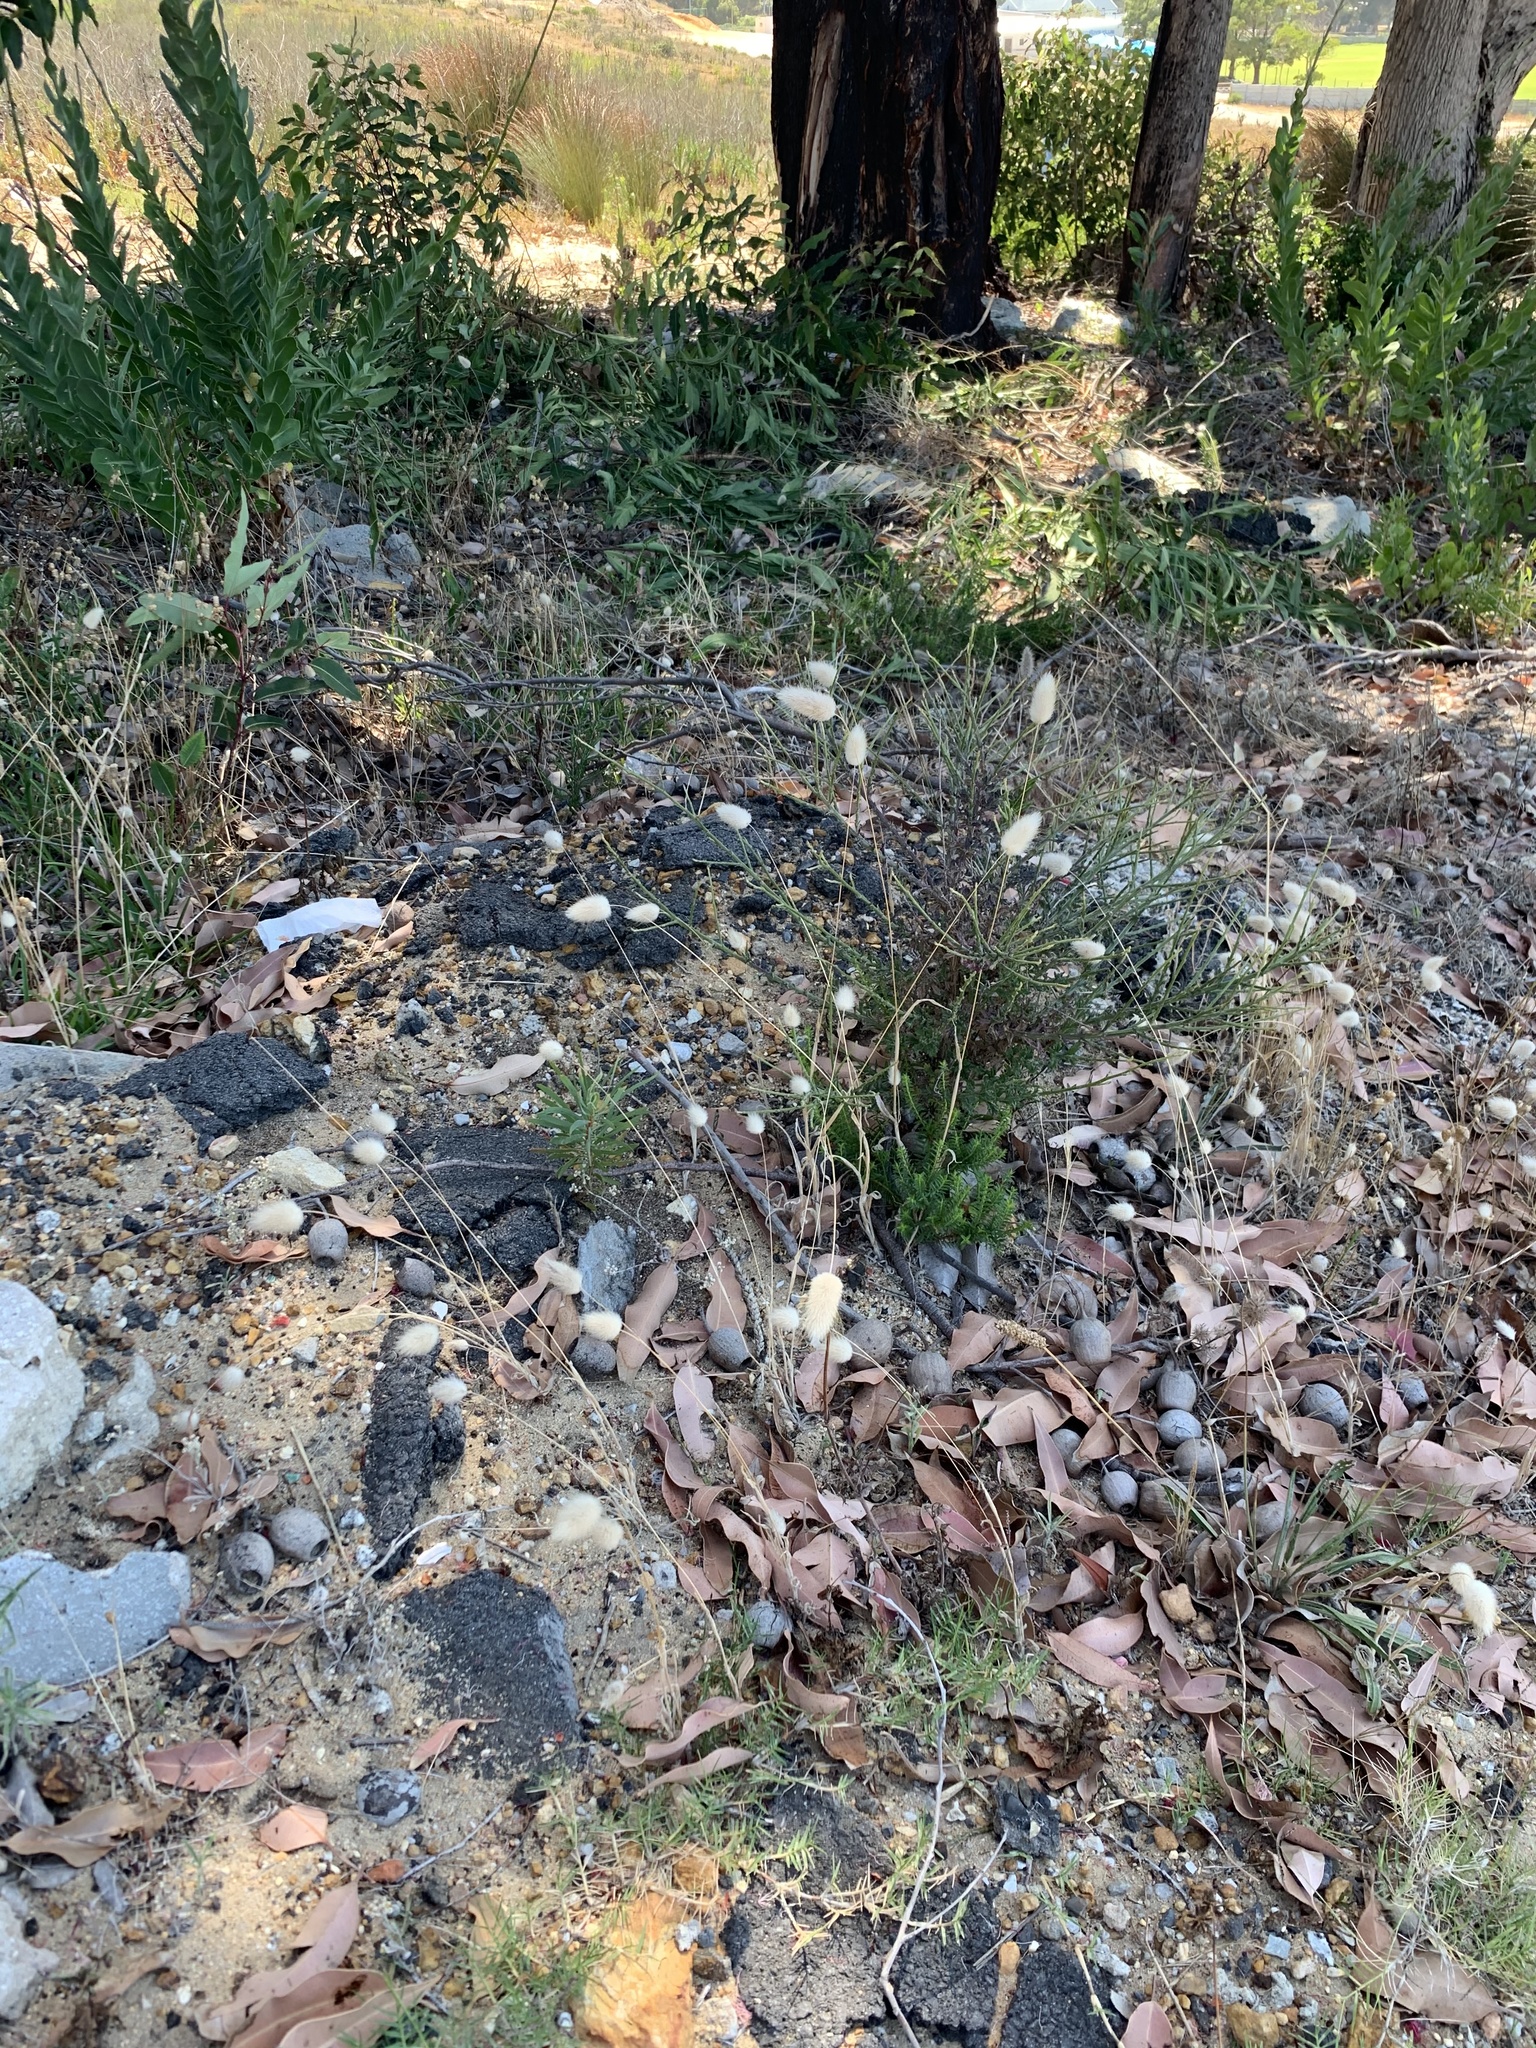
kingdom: Plantae
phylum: Tracheophyta
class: Liliopsida
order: Poales
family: Poaceae
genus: Lagurus
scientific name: Lagurus ovatus
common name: Hare's-tail
